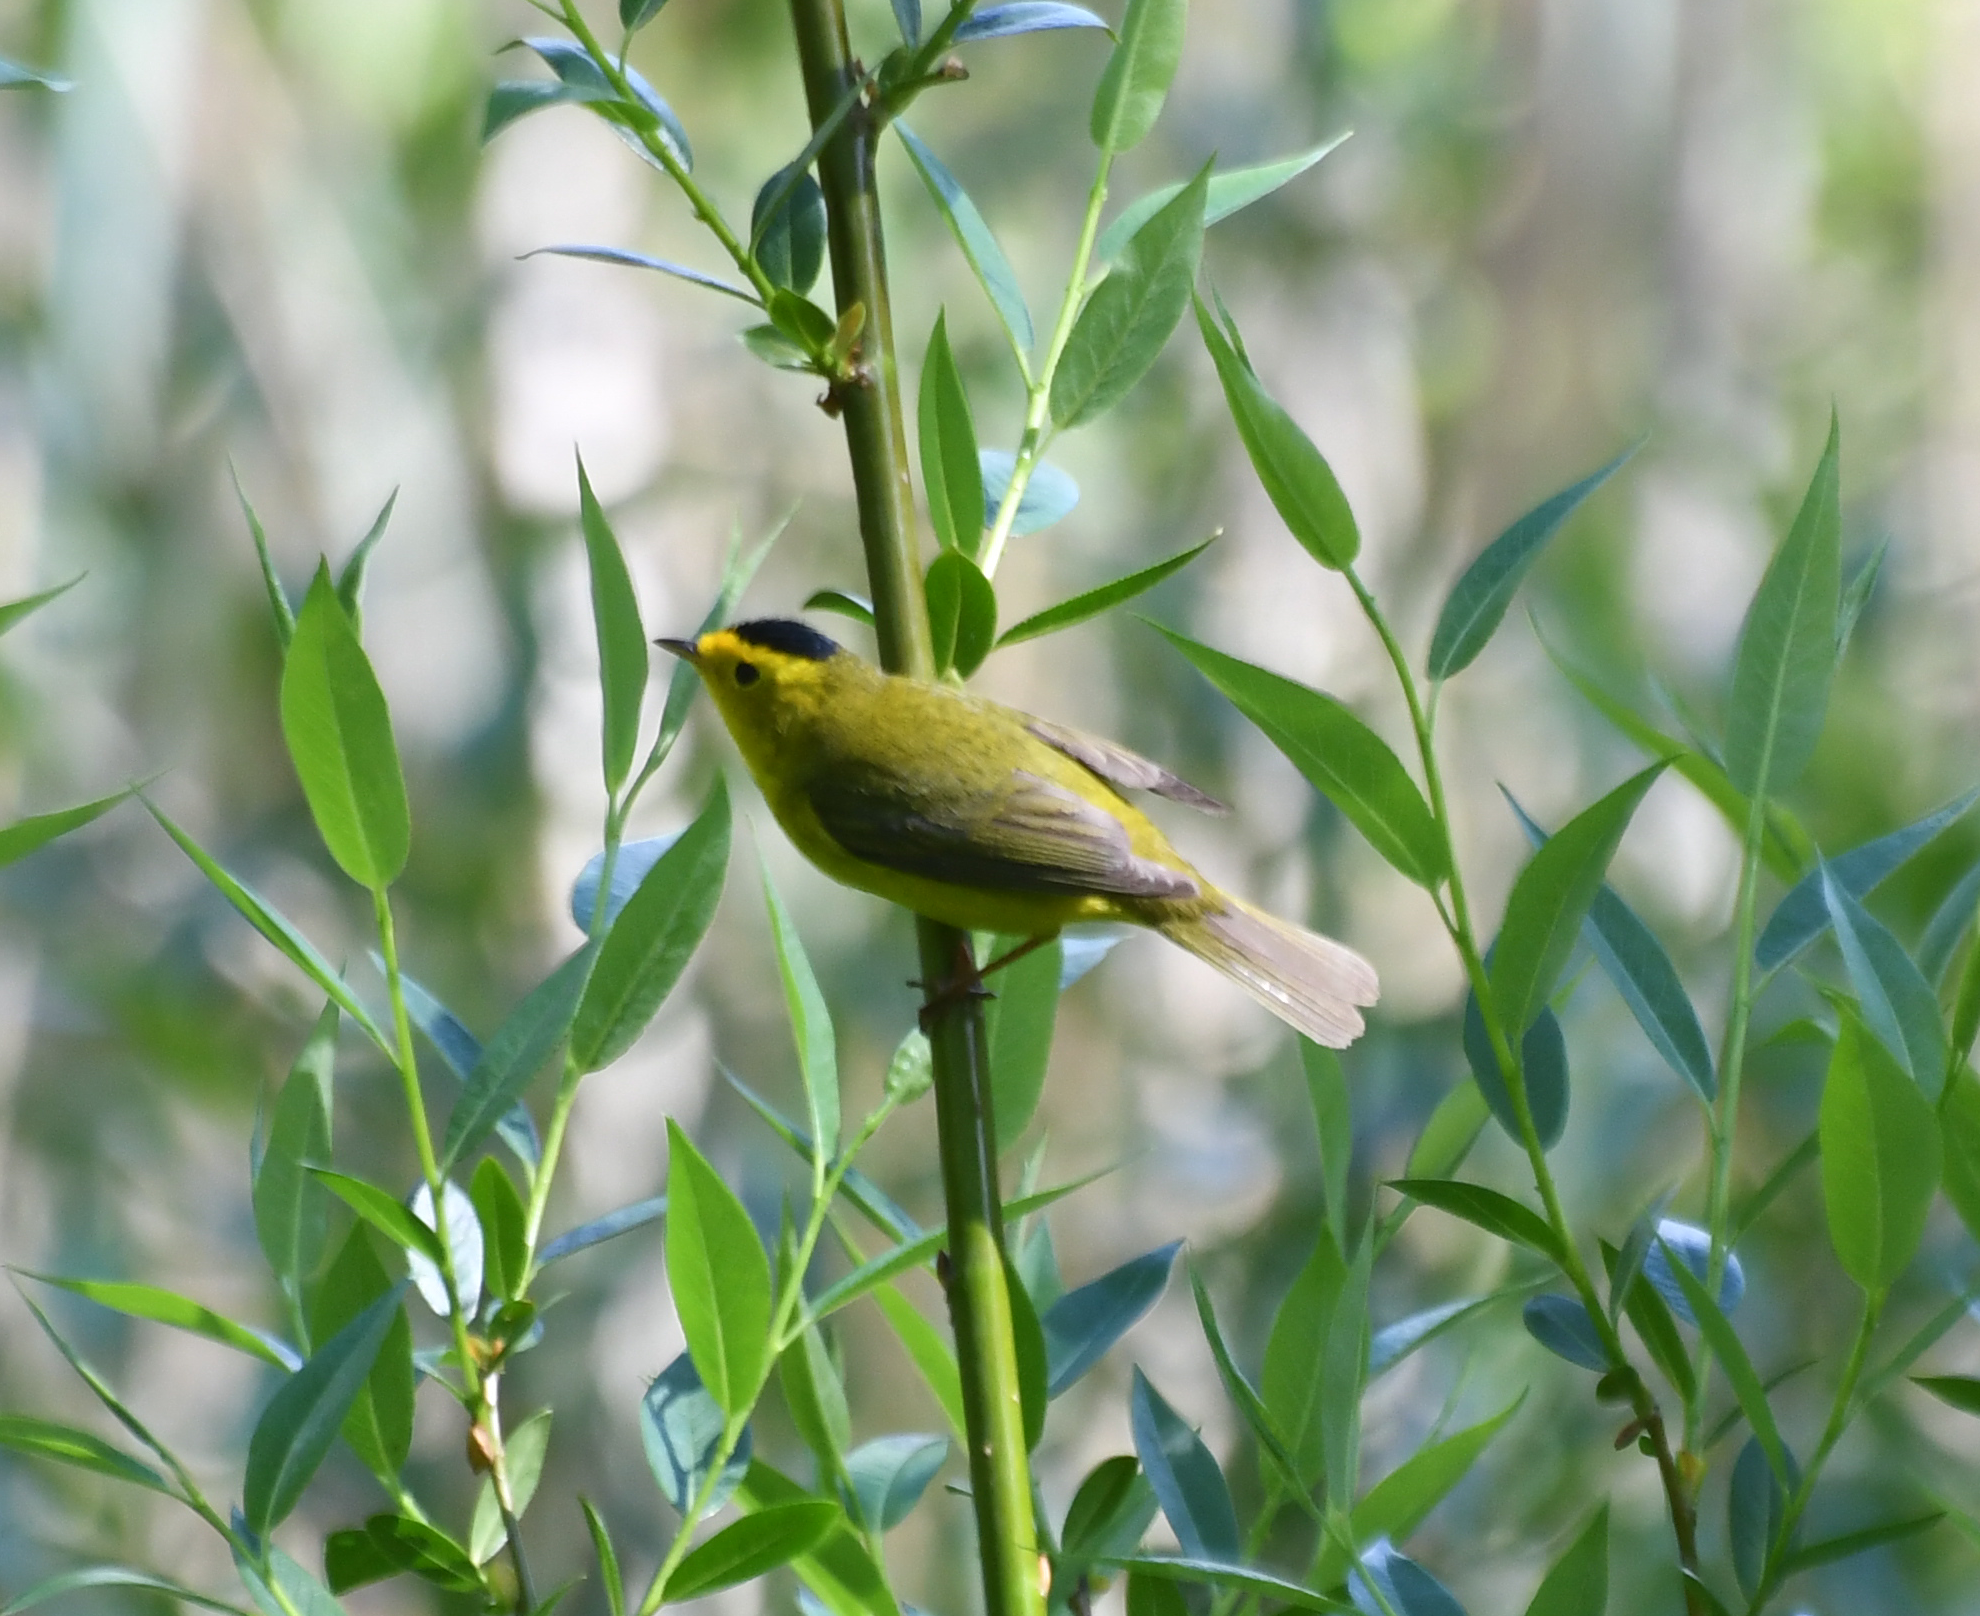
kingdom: Animalia
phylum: Chordata
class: Aves
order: Passeriformes
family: Parulidae
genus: Cardellina
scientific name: Cardellina pusilla
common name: Wilson's warbler
